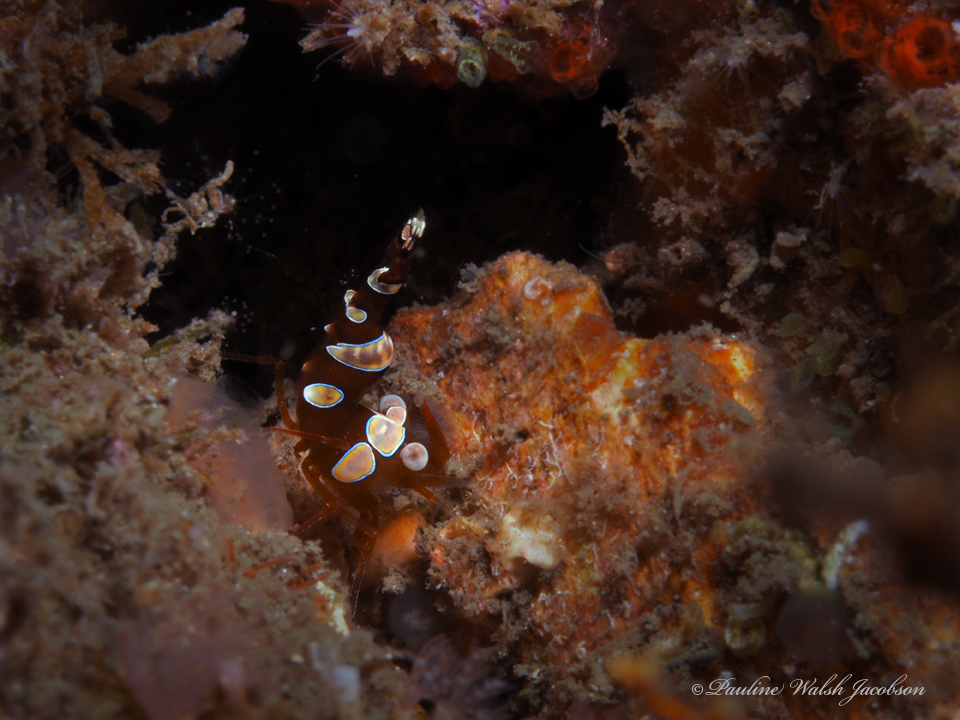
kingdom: Animalia
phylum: Arthropoda
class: Malacostraca
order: Decapoda
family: Thoridae
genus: Thor
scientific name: Thor dicaprio
